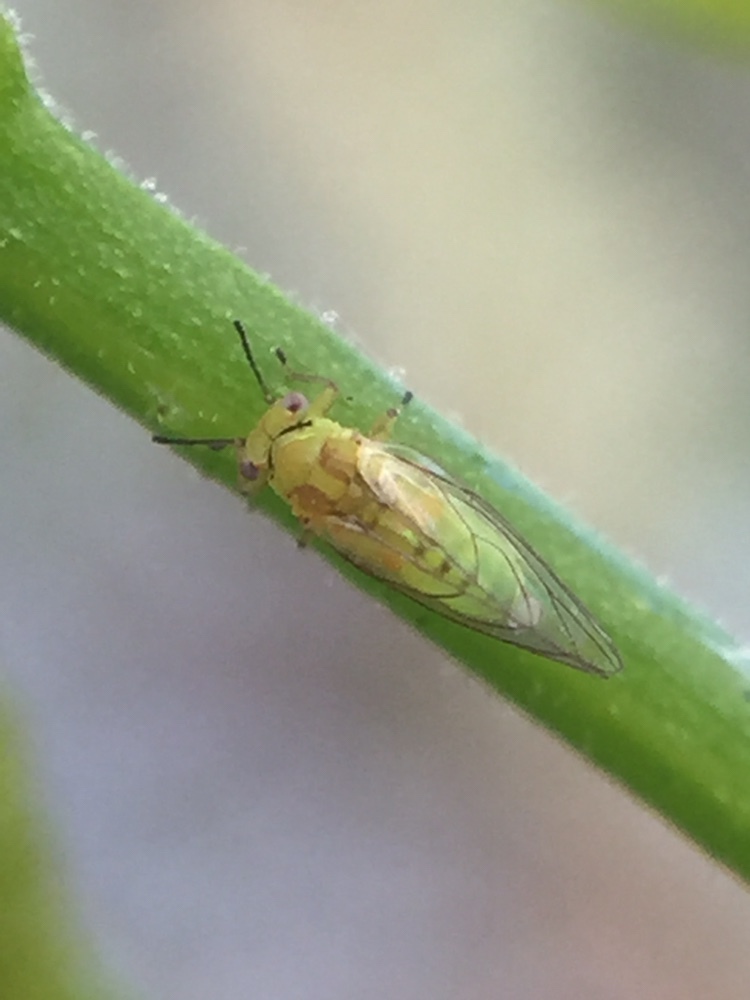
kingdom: Animalia
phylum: Arthropoda
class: Insecta
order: Hemiptera
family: Calophyidae
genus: Calophya
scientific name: Calophya schini
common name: Pepper tree psyllid
